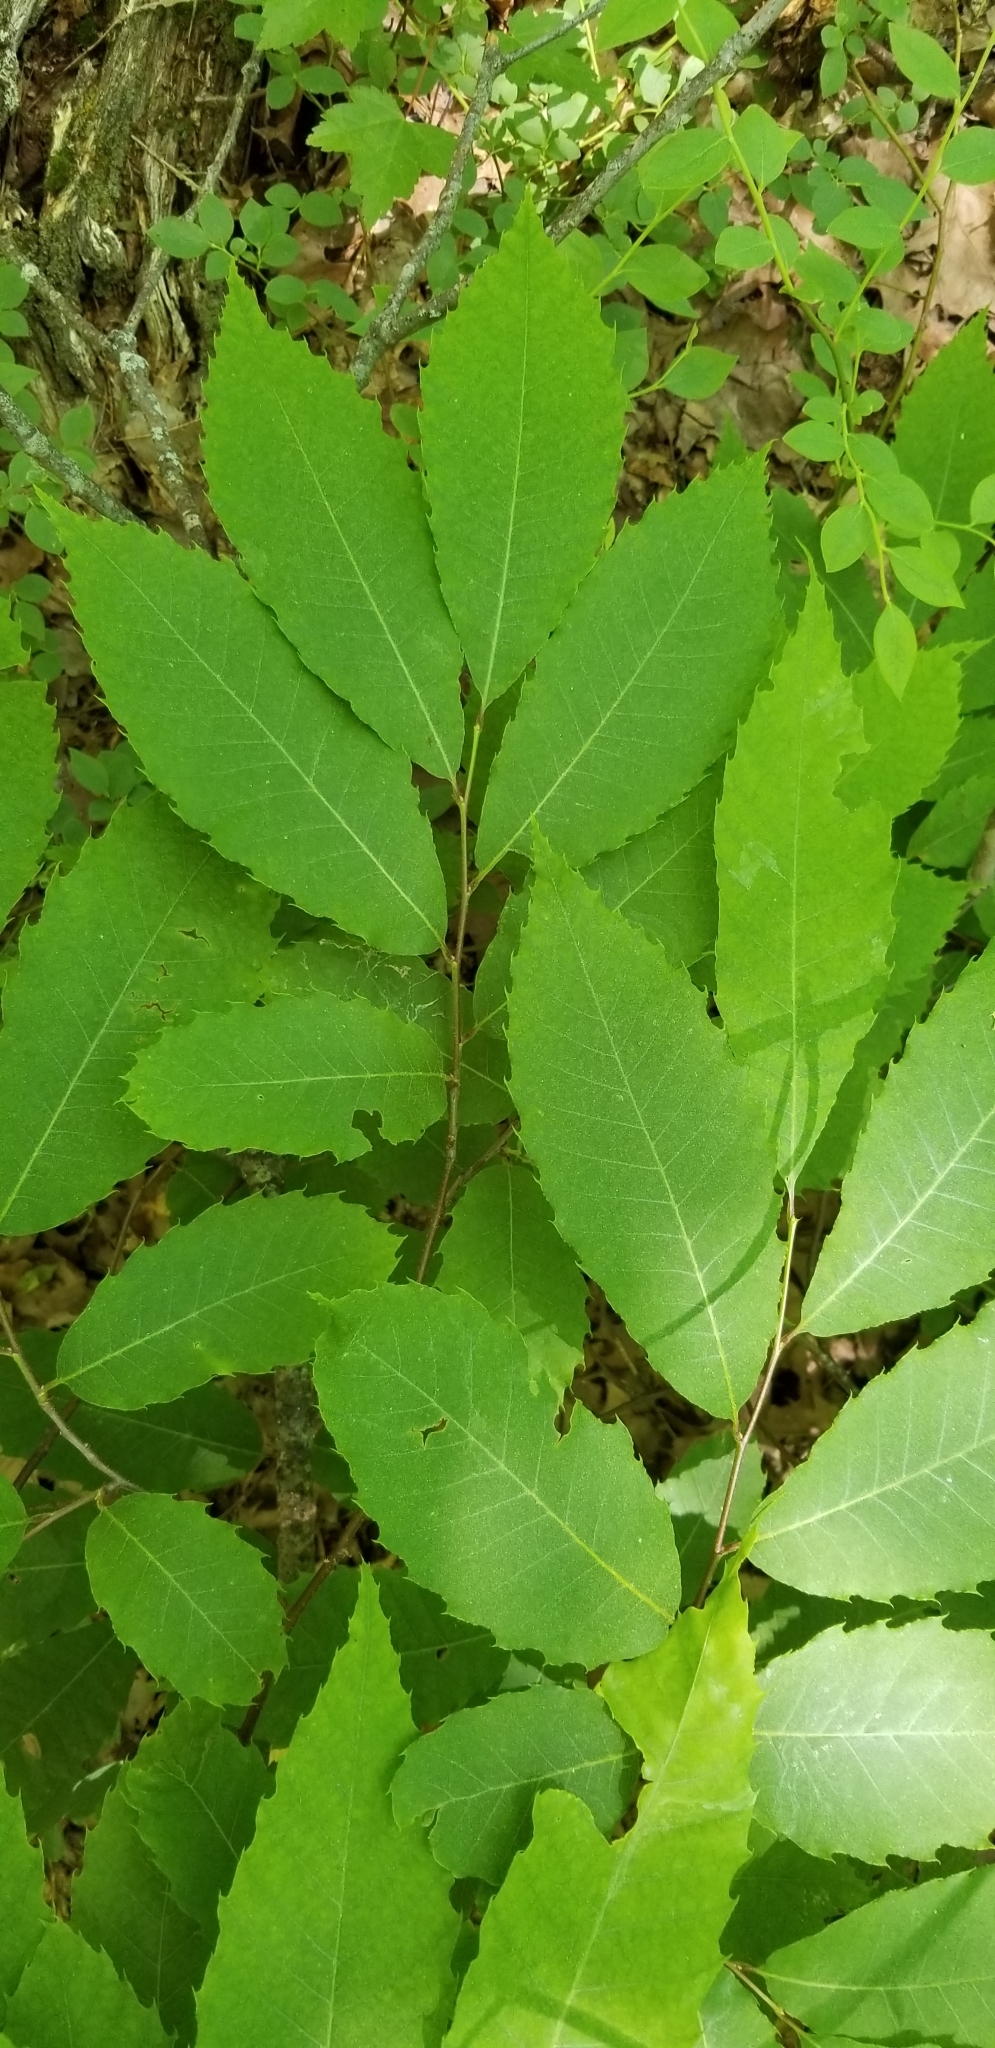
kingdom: Plantae
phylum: Tracheophyta
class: Magnoliopsida
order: Fagales
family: Fagaceae
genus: Castanea
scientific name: Castanea dentata
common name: American chestnut
